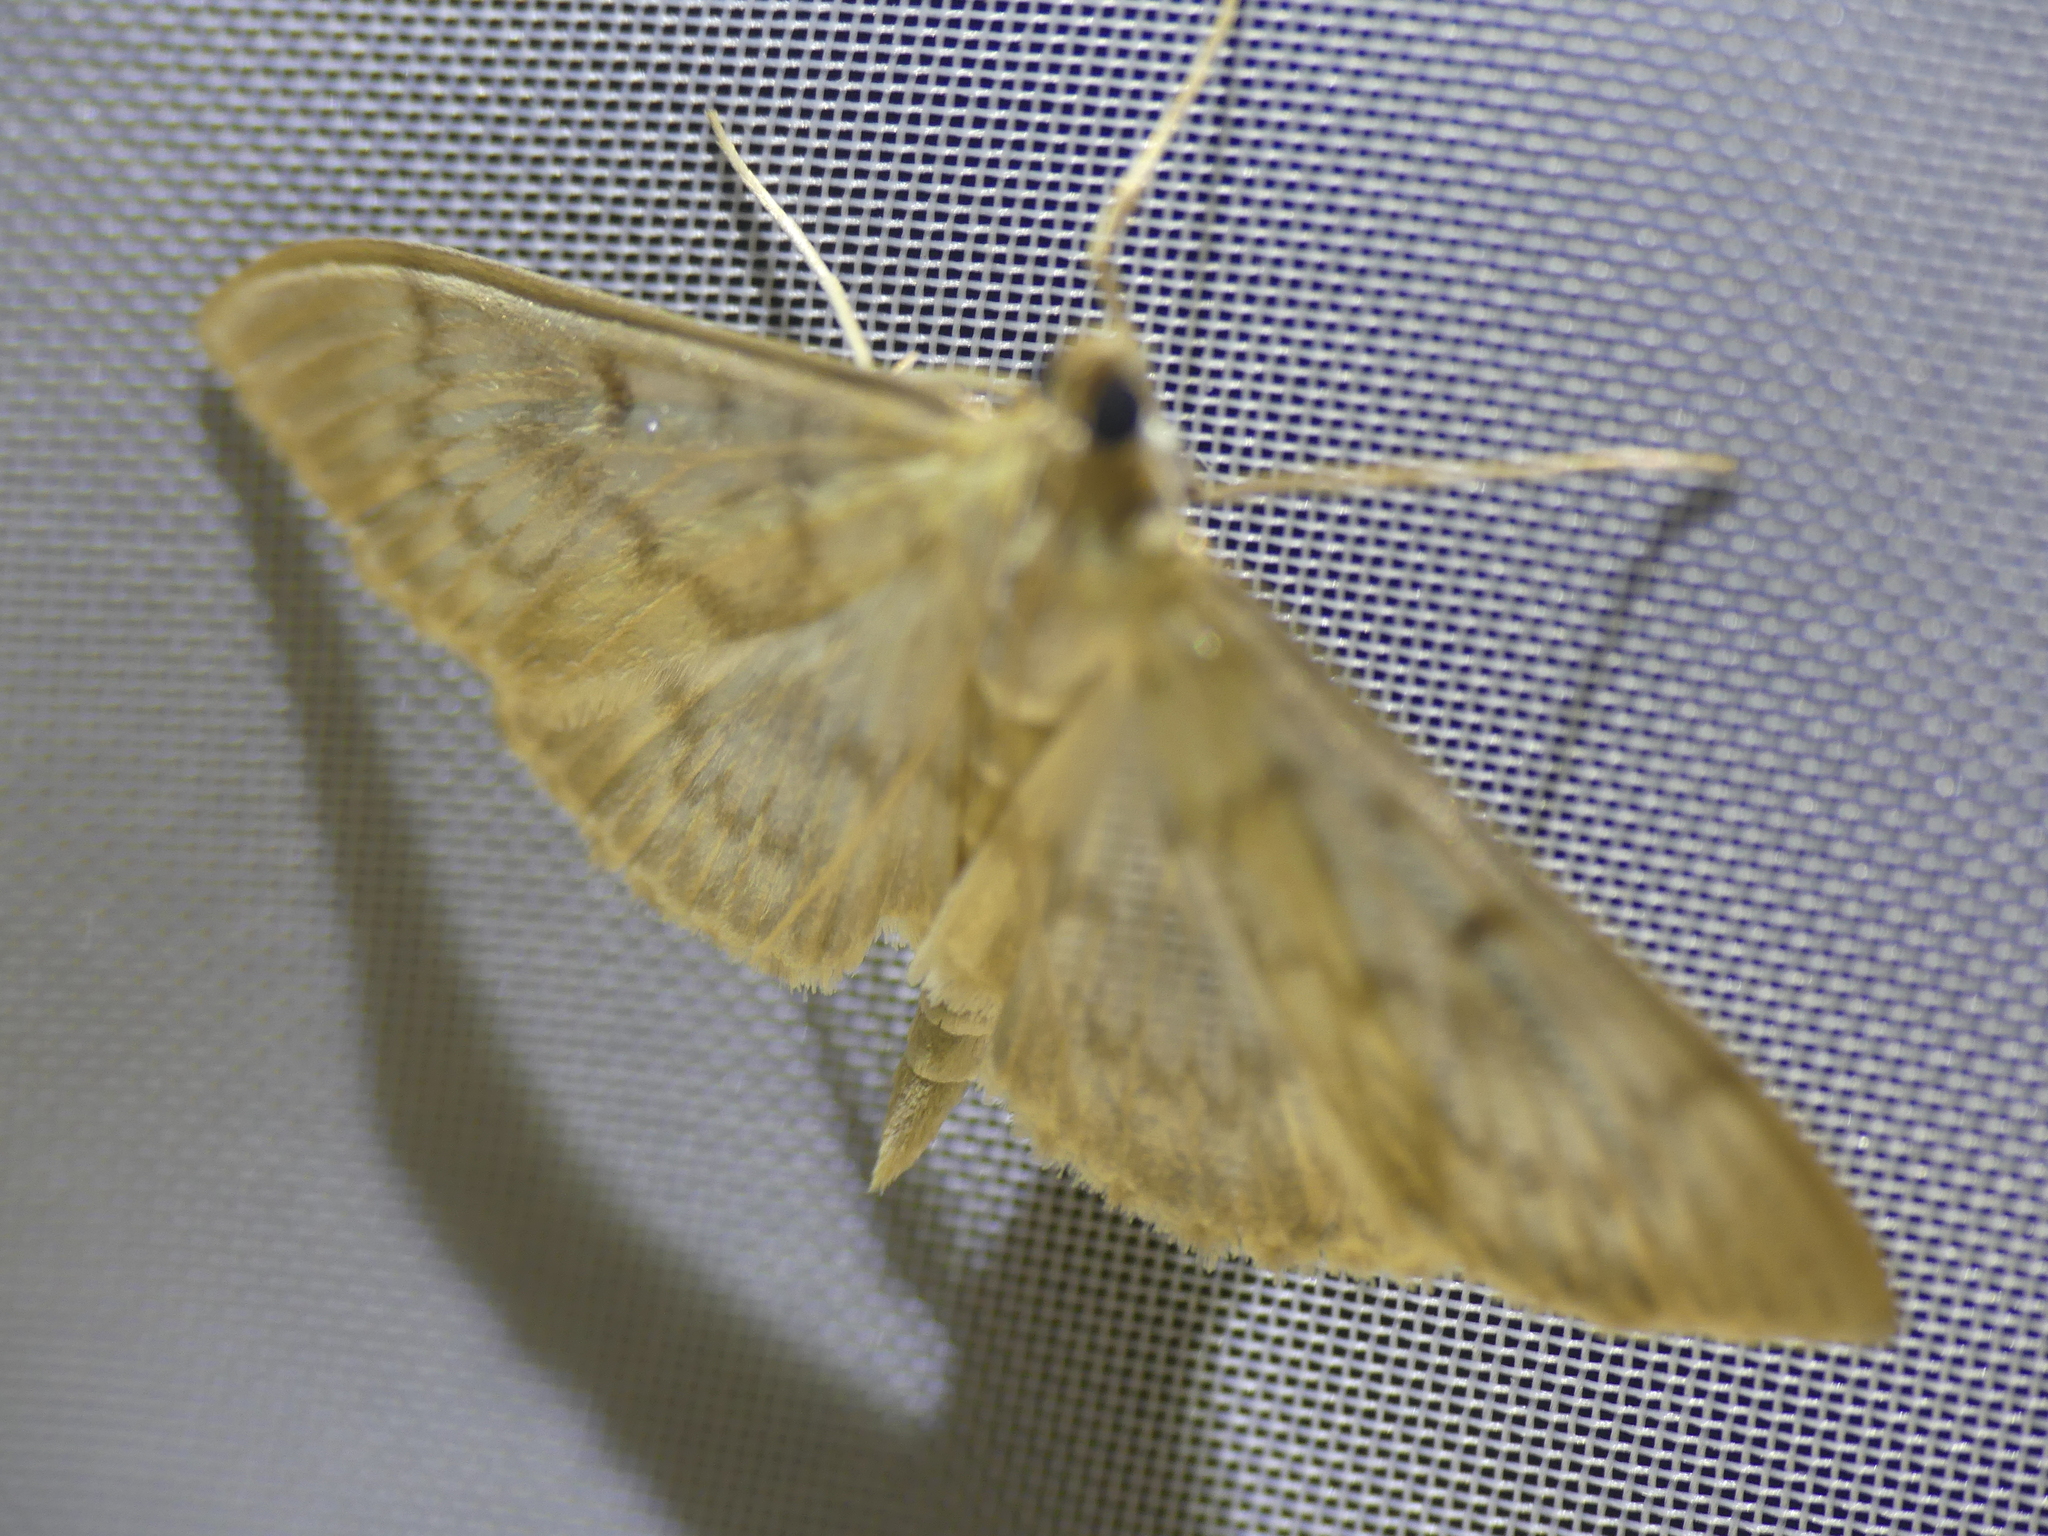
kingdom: Animalia
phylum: Arthropoda
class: Insecta
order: Lepidoptera
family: Crambidae
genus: Patania
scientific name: Patania ruralis
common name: Mother of pearl
